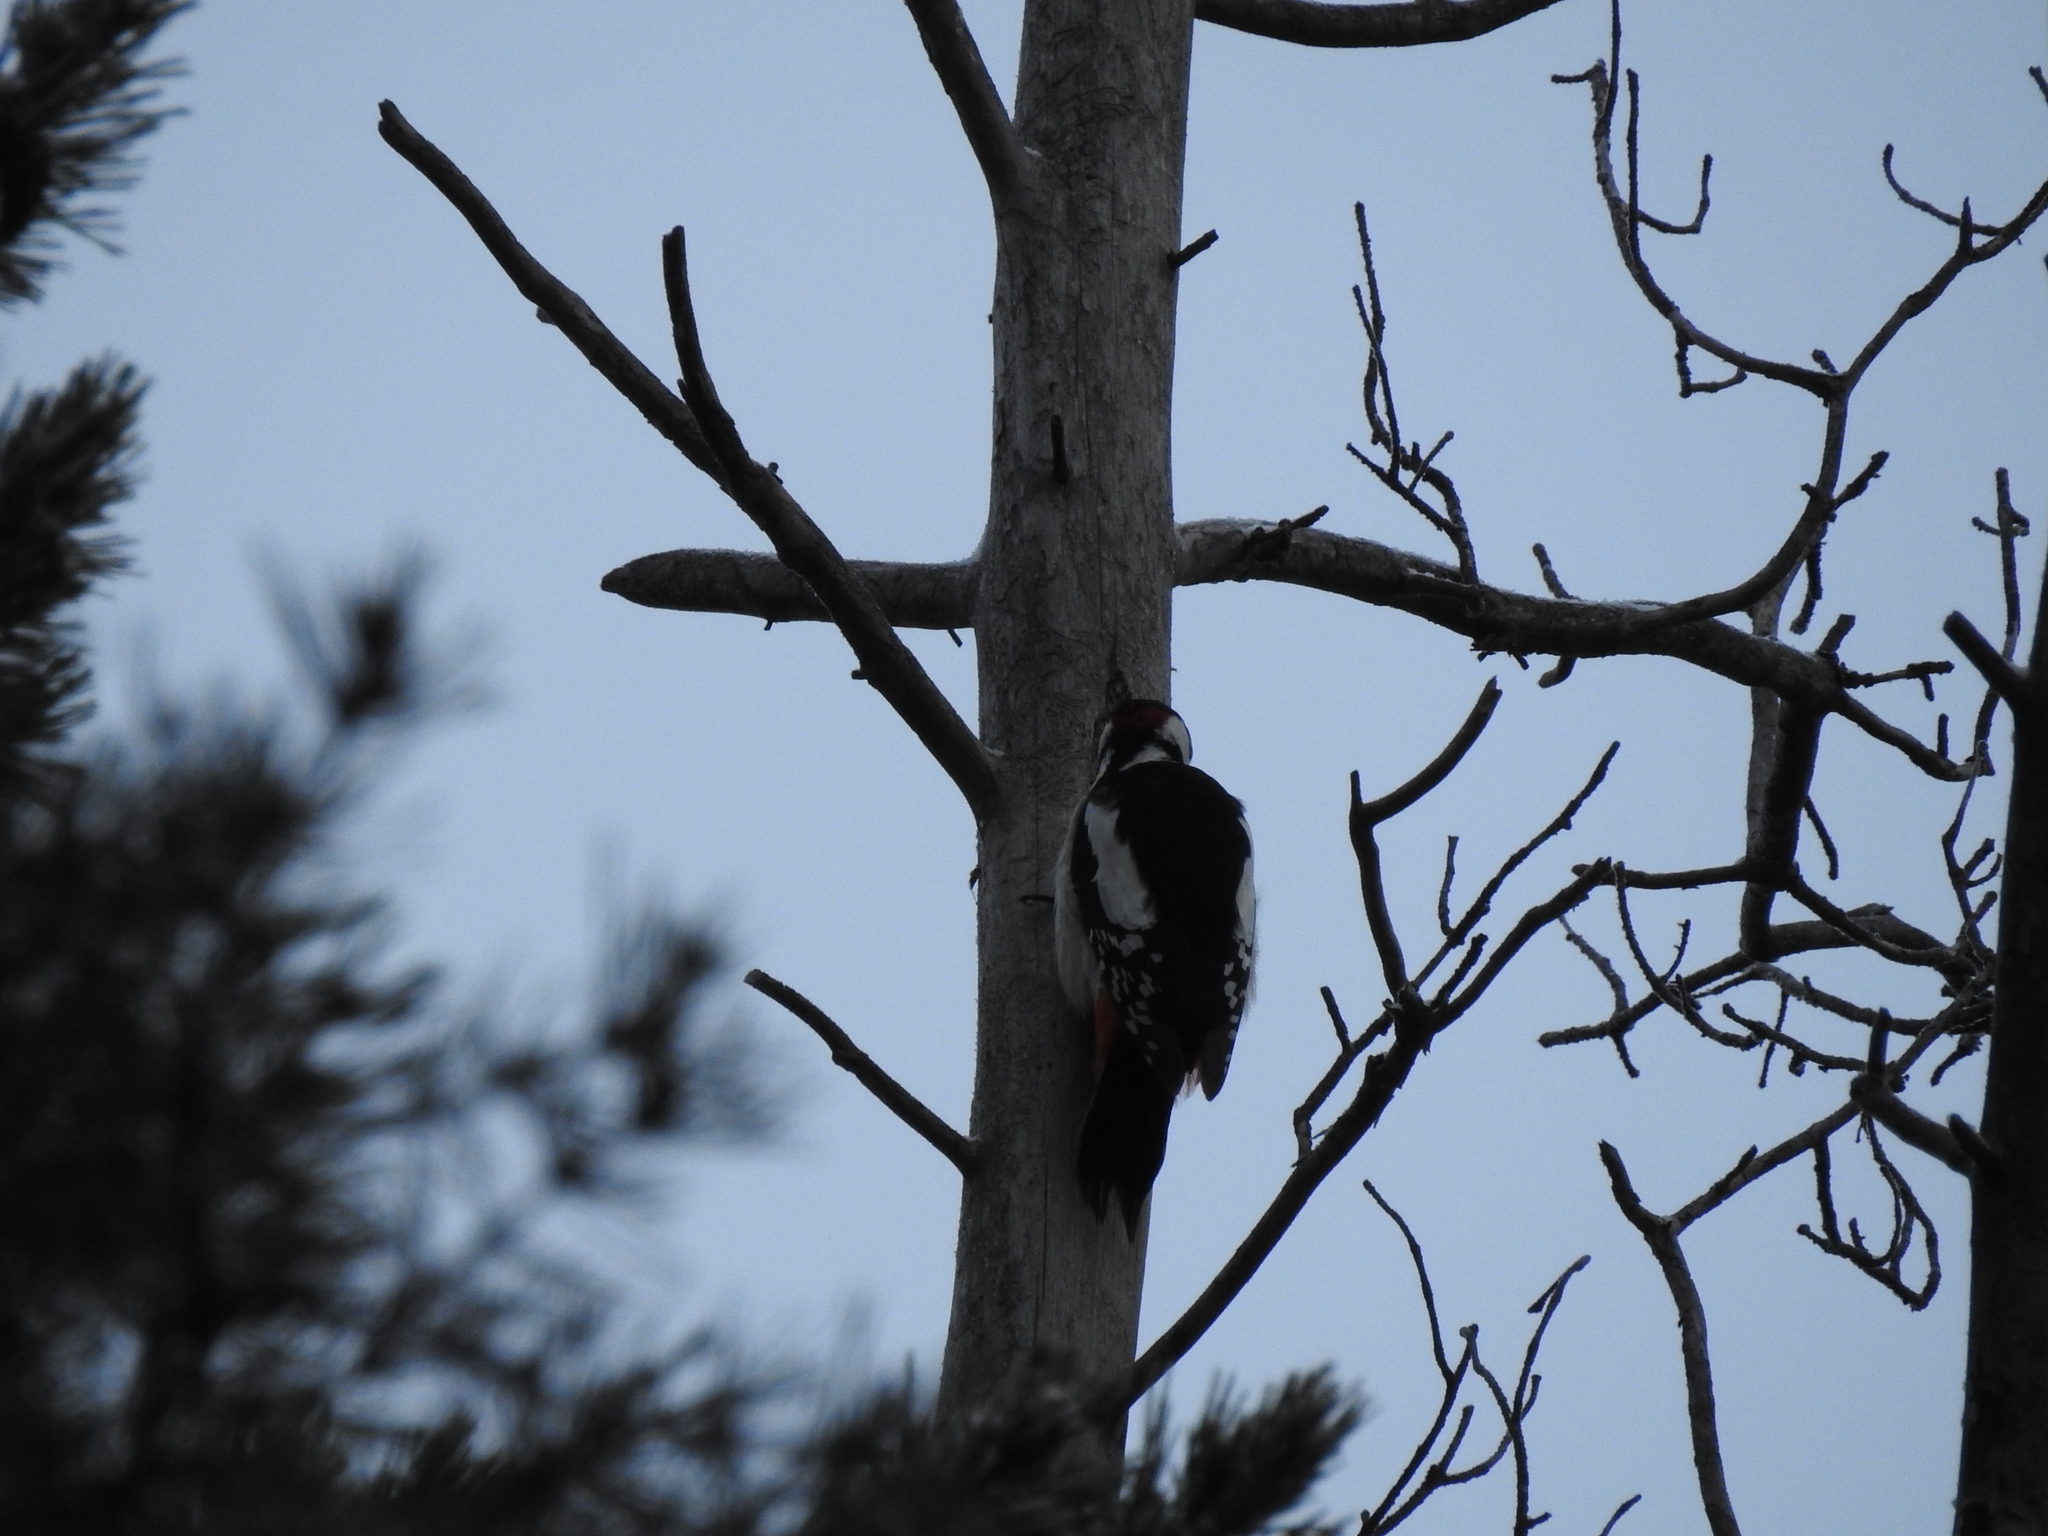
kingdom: Animalia
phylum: Chordata
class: Aves
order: Piciformes
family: Picidae
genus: Dendrocopos
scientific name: Dendrocopos major
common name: Great spotted woodpecker
